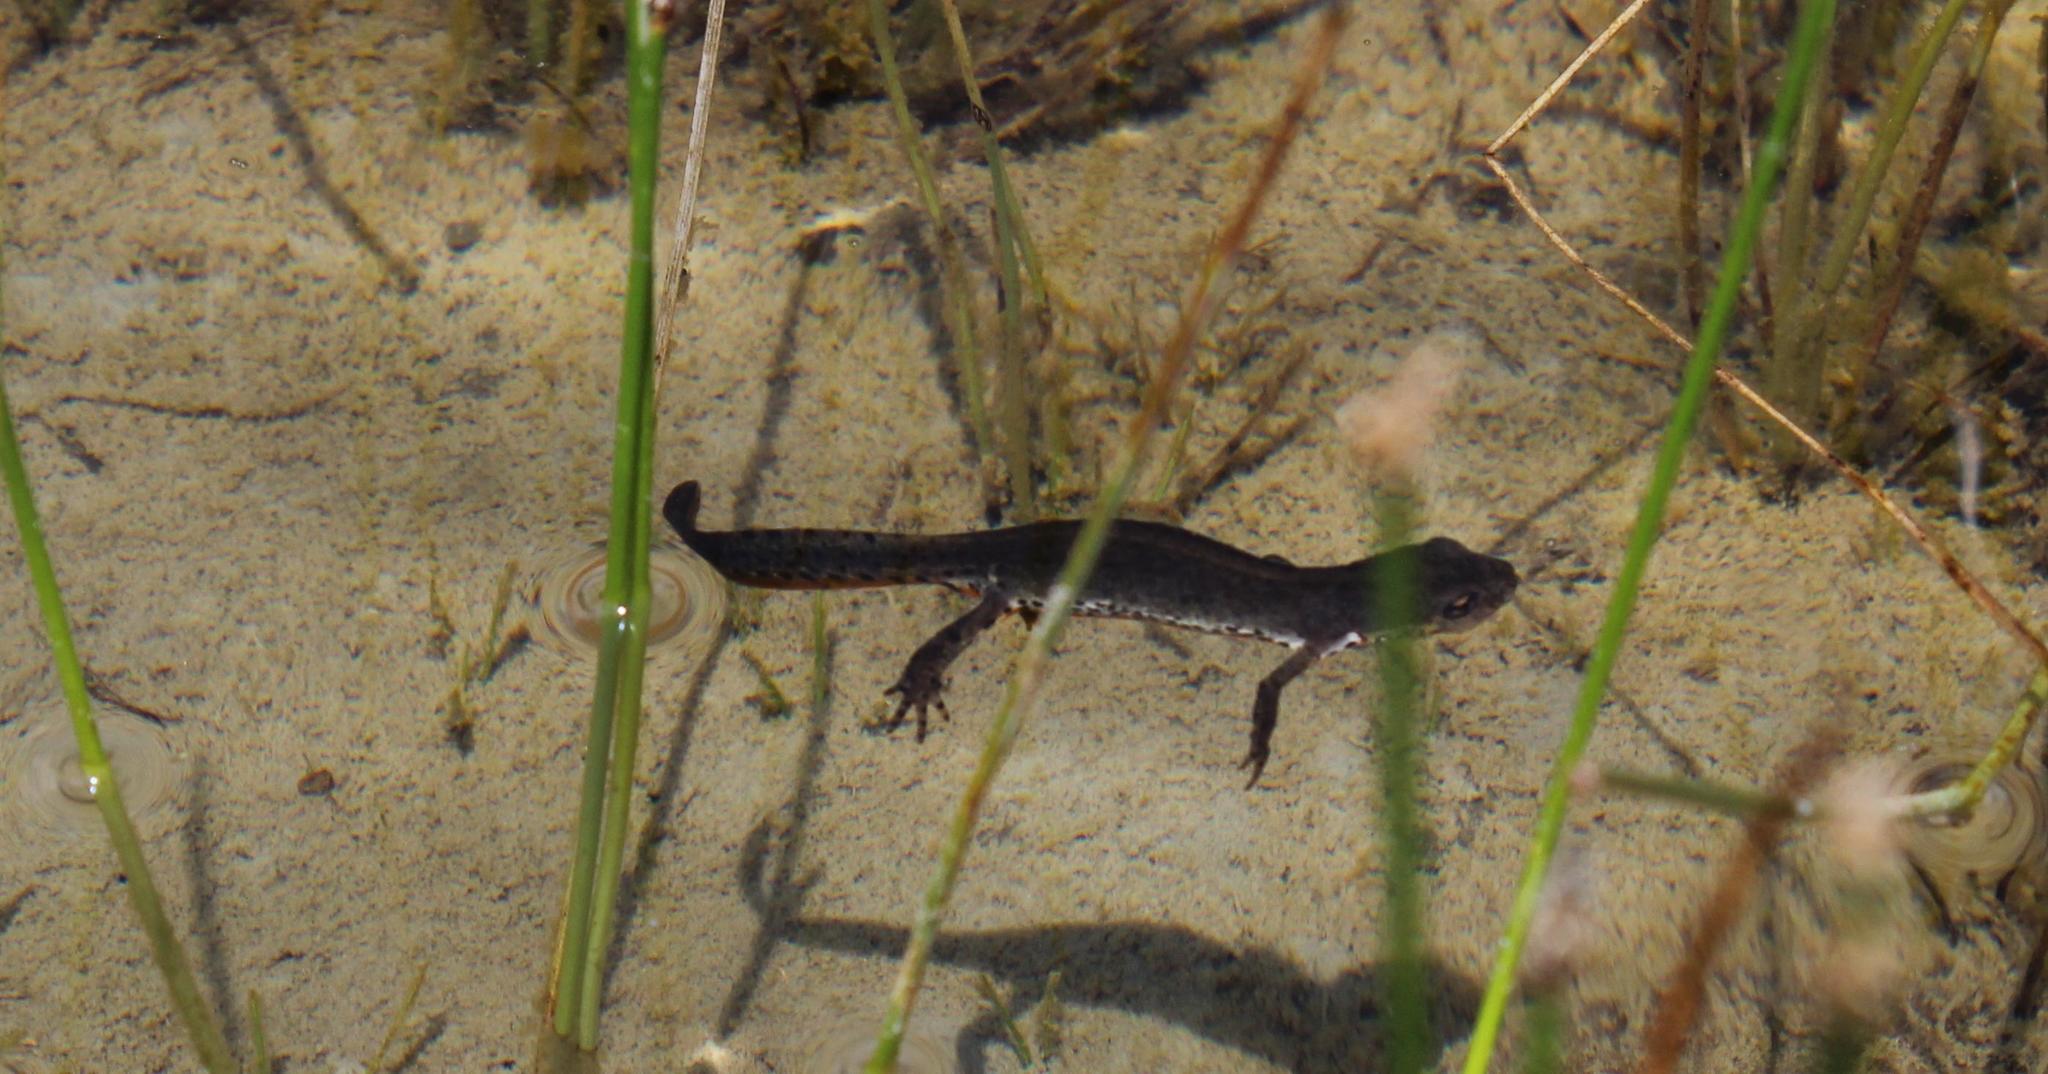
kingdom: Animalia
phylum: Chordata
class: Amphibia
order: Caudata
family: Salamandridae
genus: Ichthyosaura
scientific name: Ichthyosaura alpestris
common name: Alpine newt
